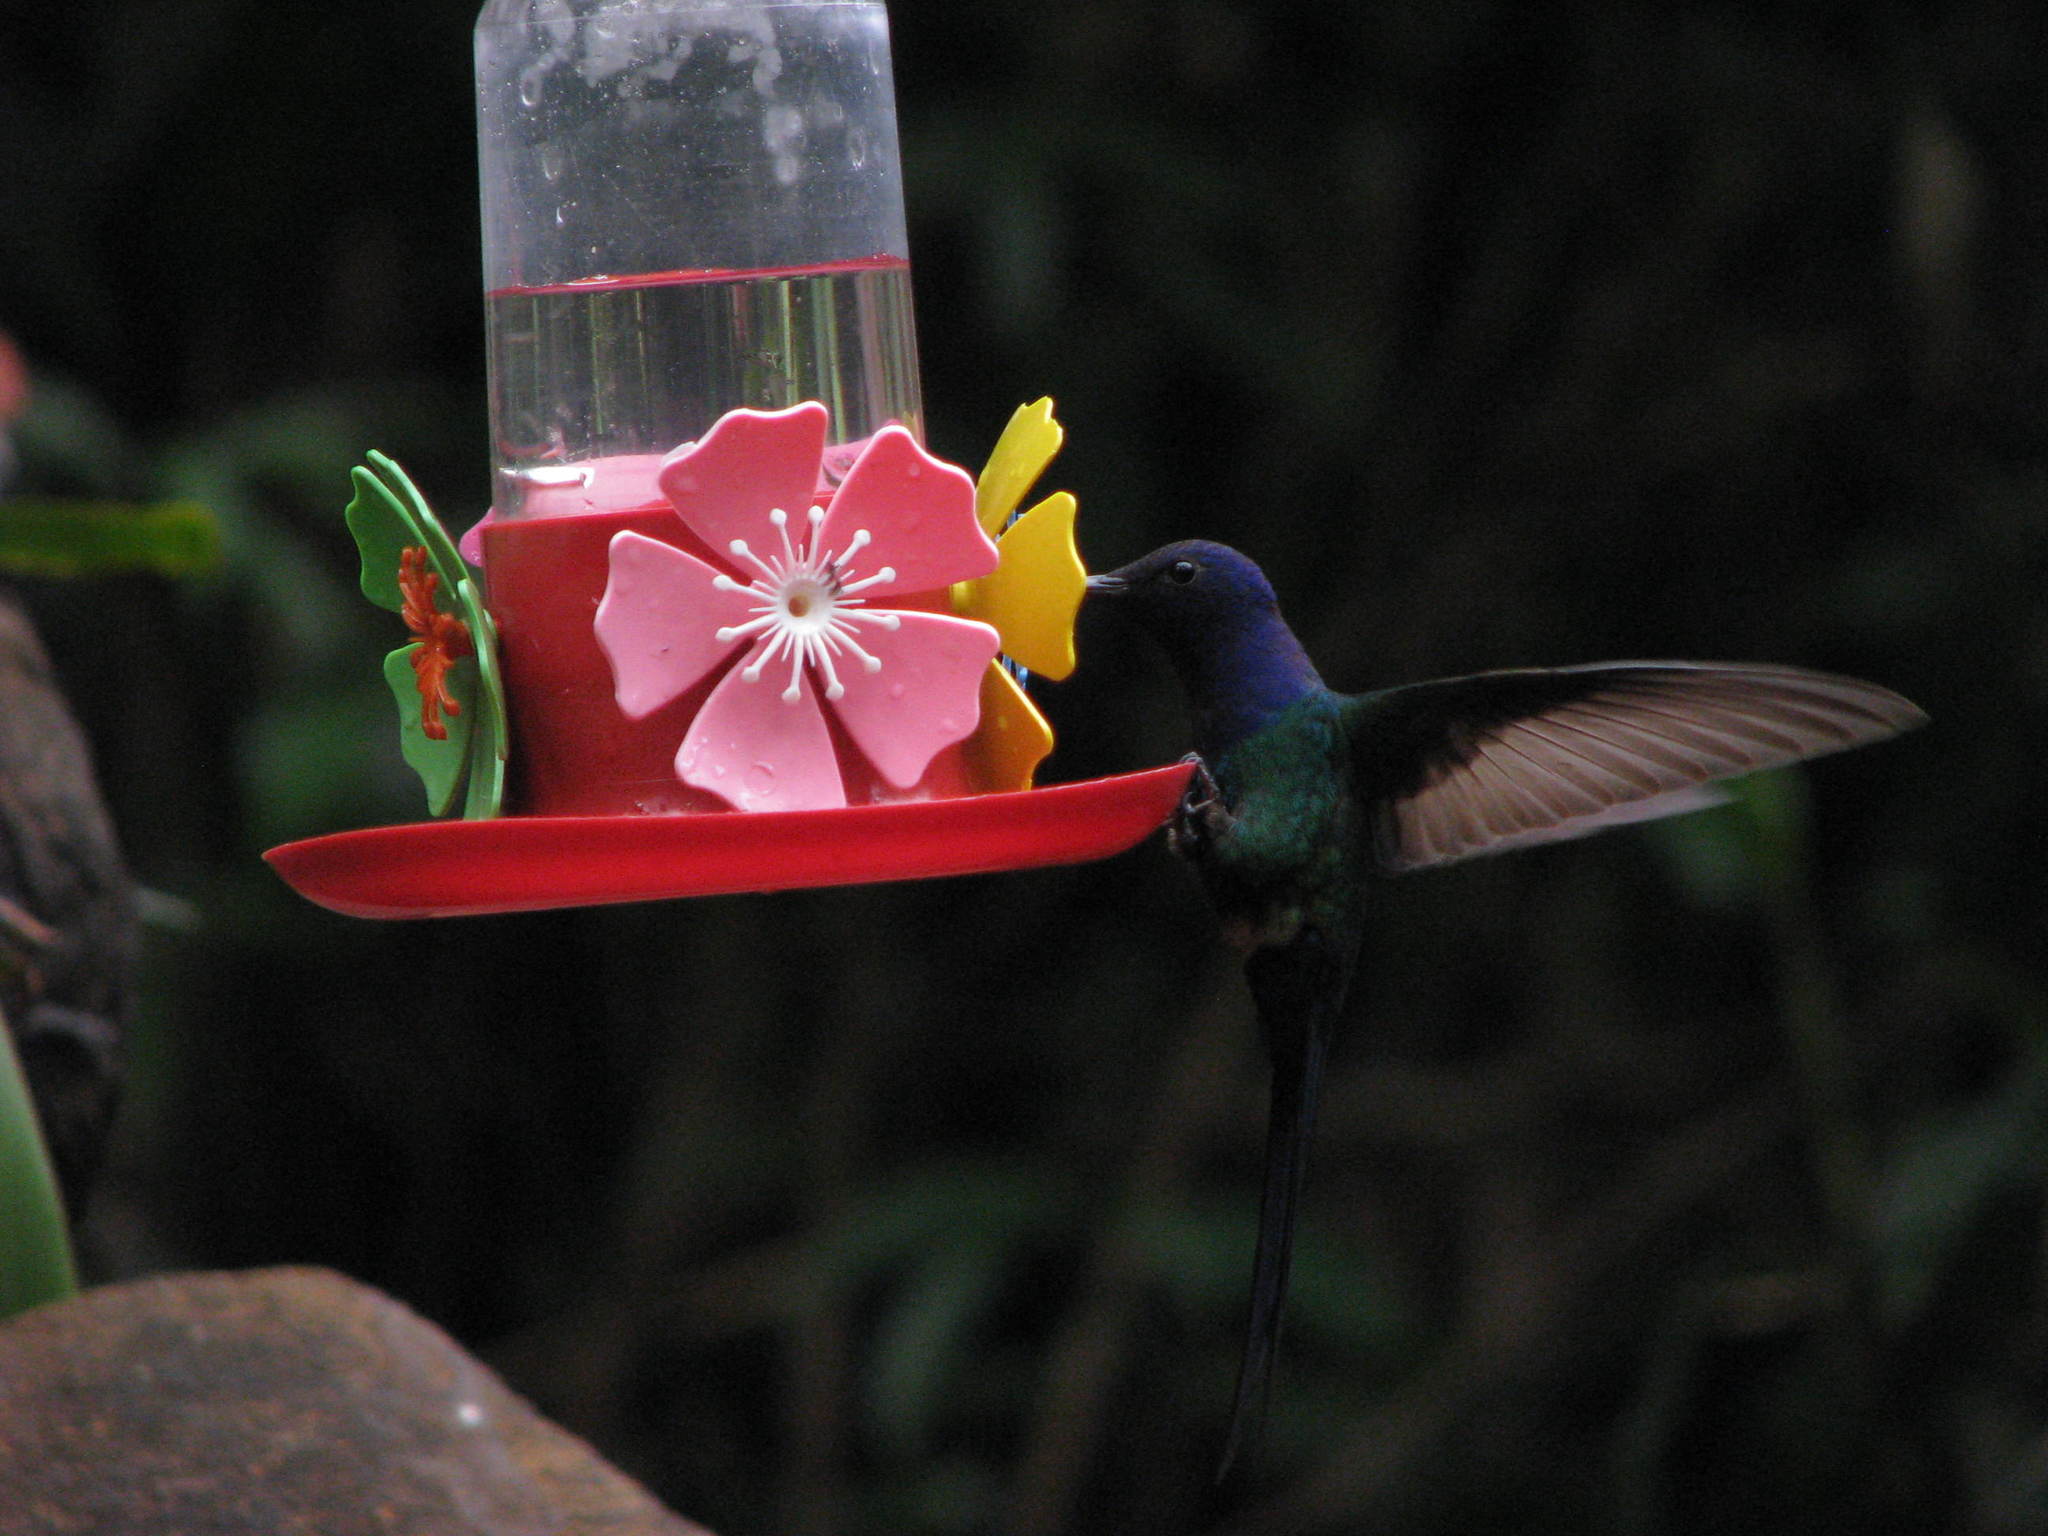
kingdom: Animalia
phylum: Chordata
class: Aves
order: Apodiformes
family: Trochilidae
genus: Eupetomena
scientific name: Eupetomena macroura
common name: Swallow-tailed hummingbird
